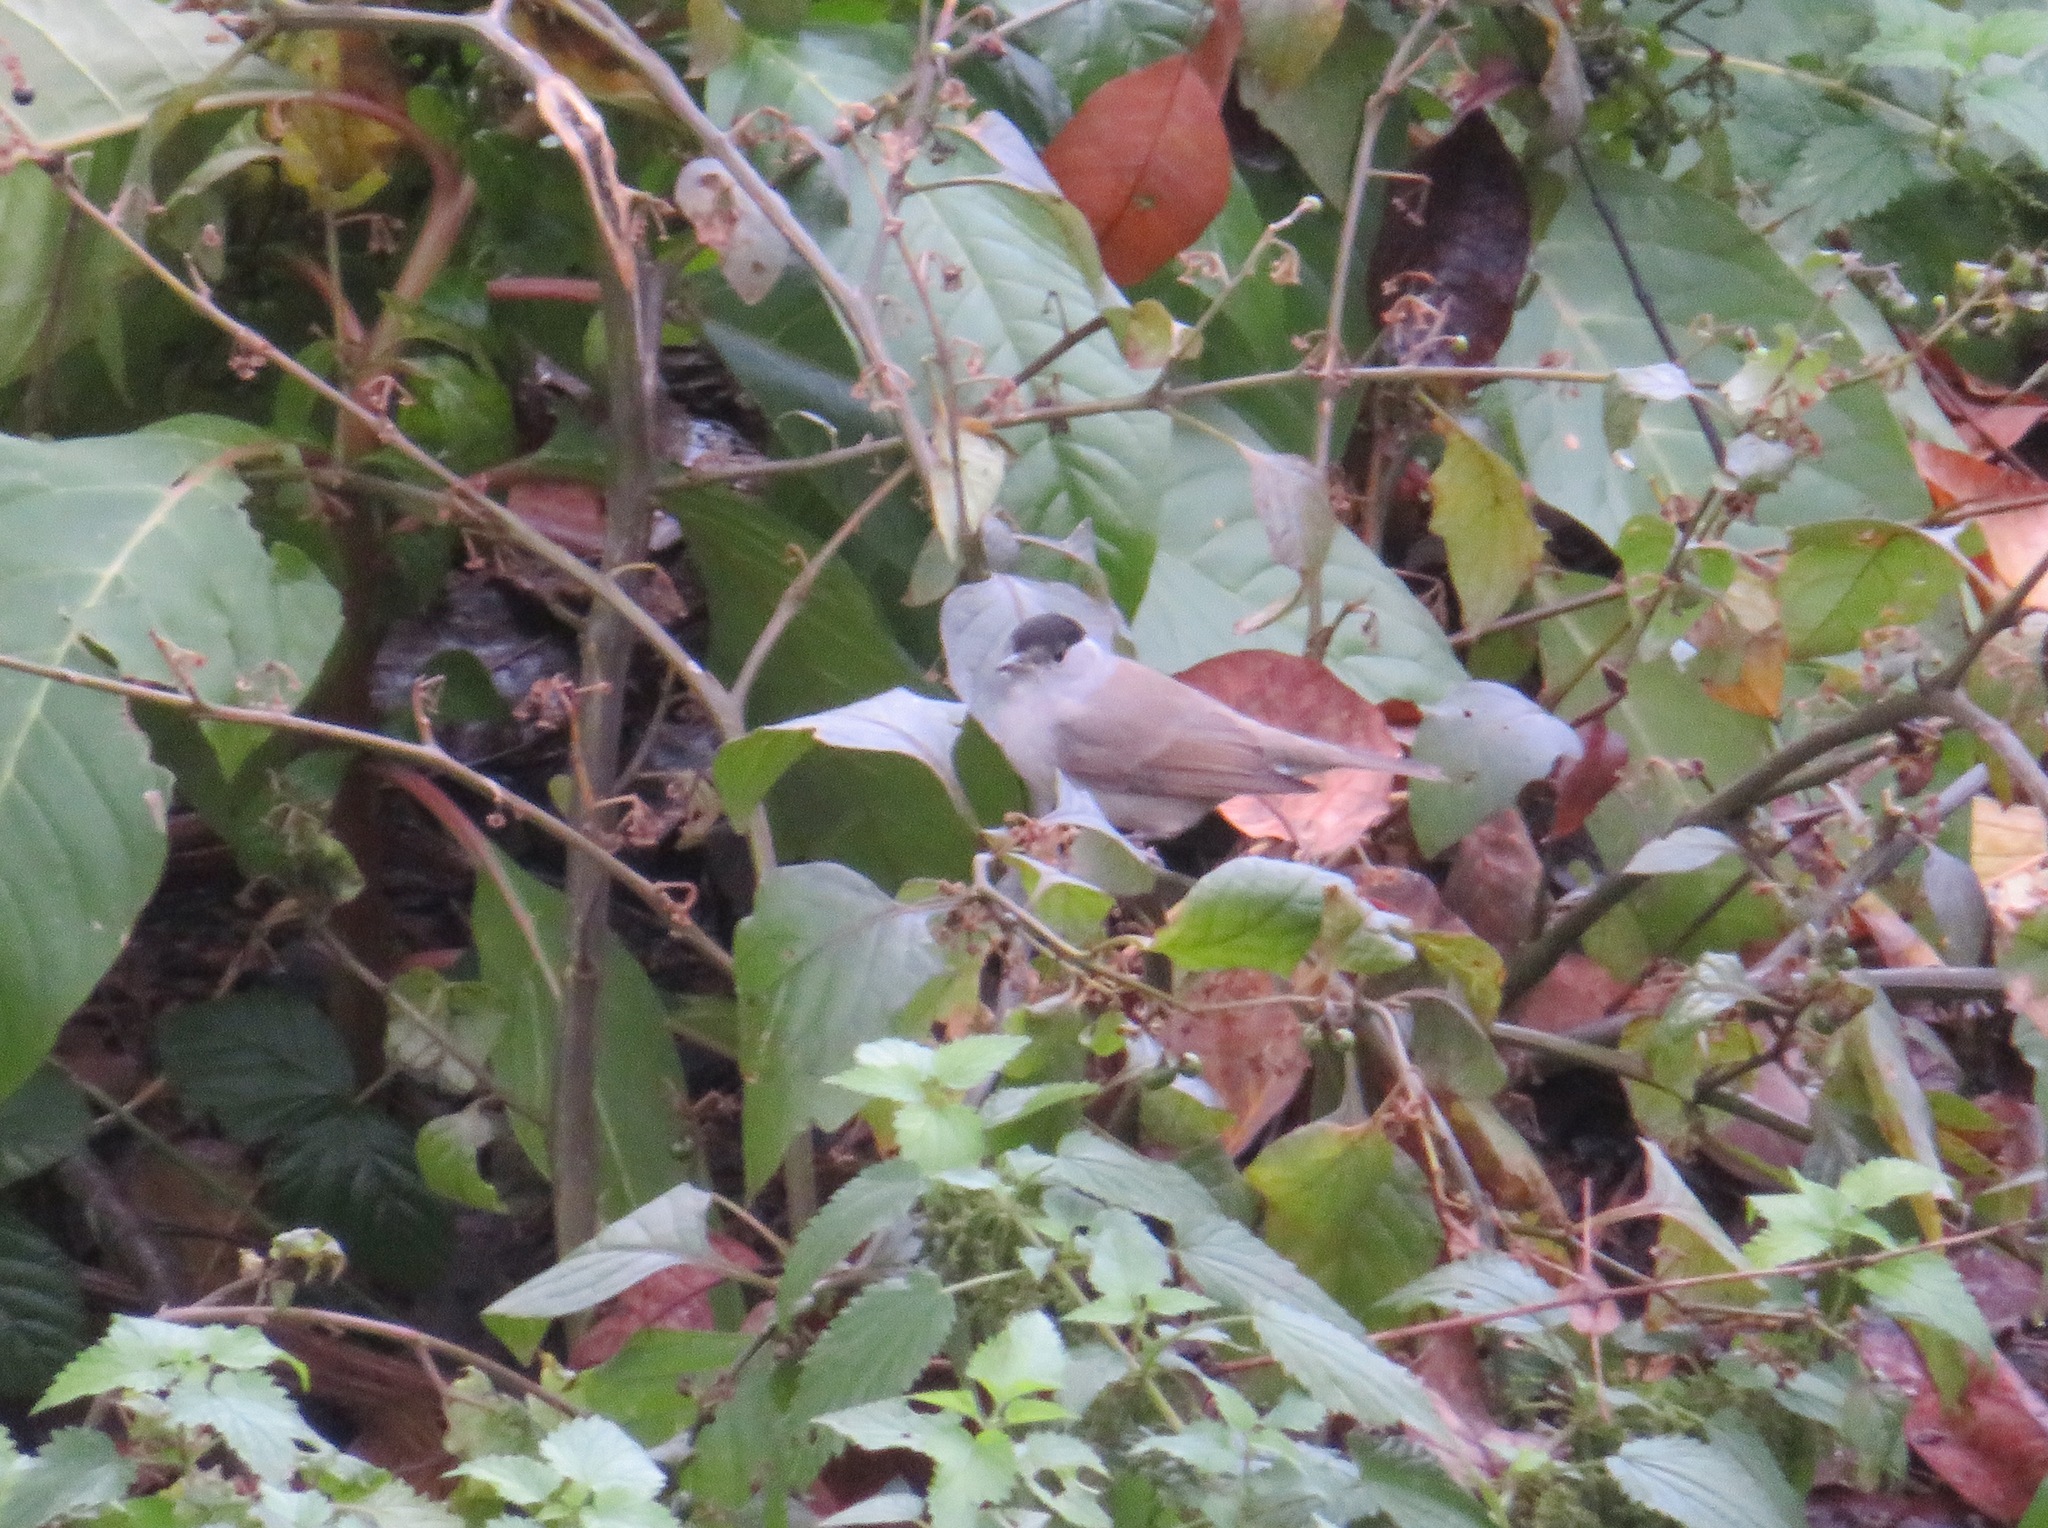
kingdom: Animalia
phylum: Chordata
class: Aves
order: Passeriformes
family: Sylviidae
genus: Sylvia
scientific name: Sylvia atricapilla
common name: Eurasian blackcap
